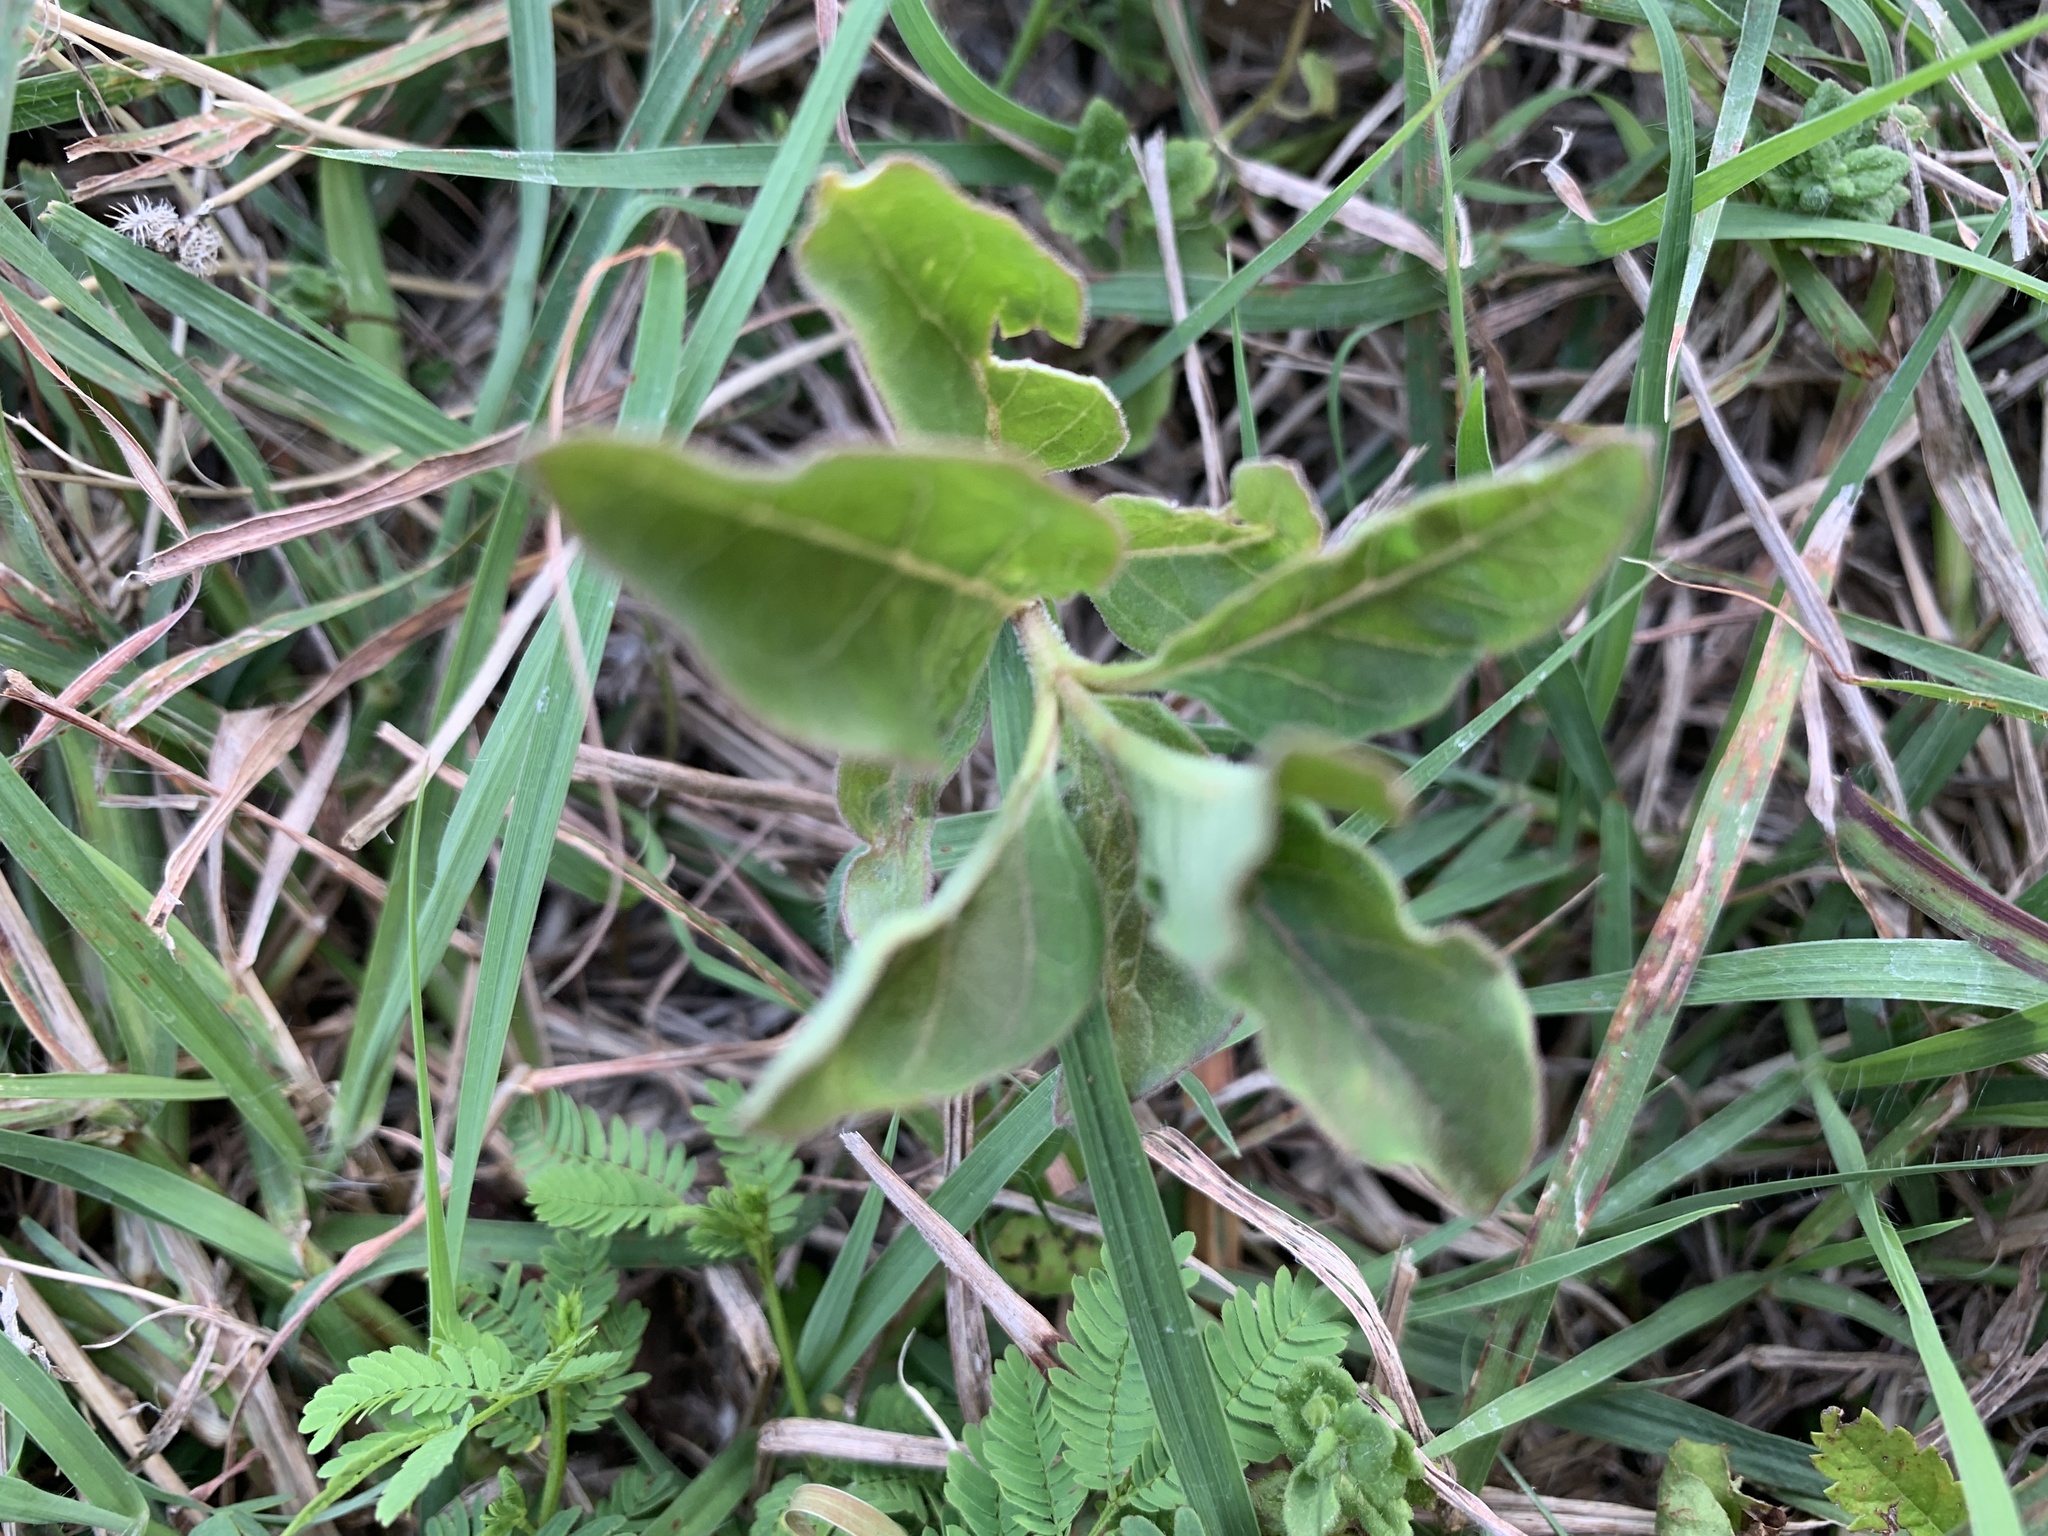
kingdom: Plantae
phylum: Tracheophyta
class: Magnoliopsida
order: Gentianales
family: Apocynaceae
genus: Asclepias
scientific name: Asclepias oenotheroides
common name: Zizotes milkweed
